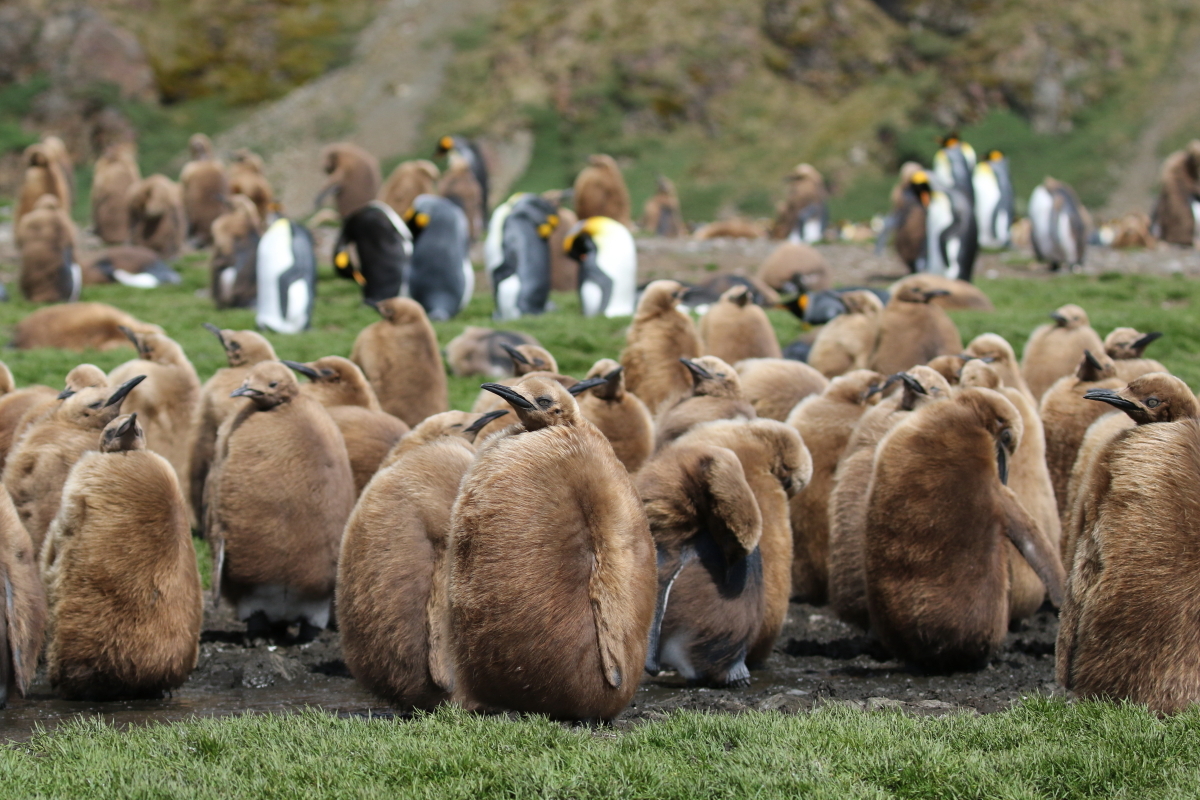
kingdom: Animalia
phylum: Chordata
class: Aves
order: Sphenisciformes
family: Spheniscidae
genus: Aptenodytes
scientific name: Aptenodytes patagonicus
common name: King penguin
